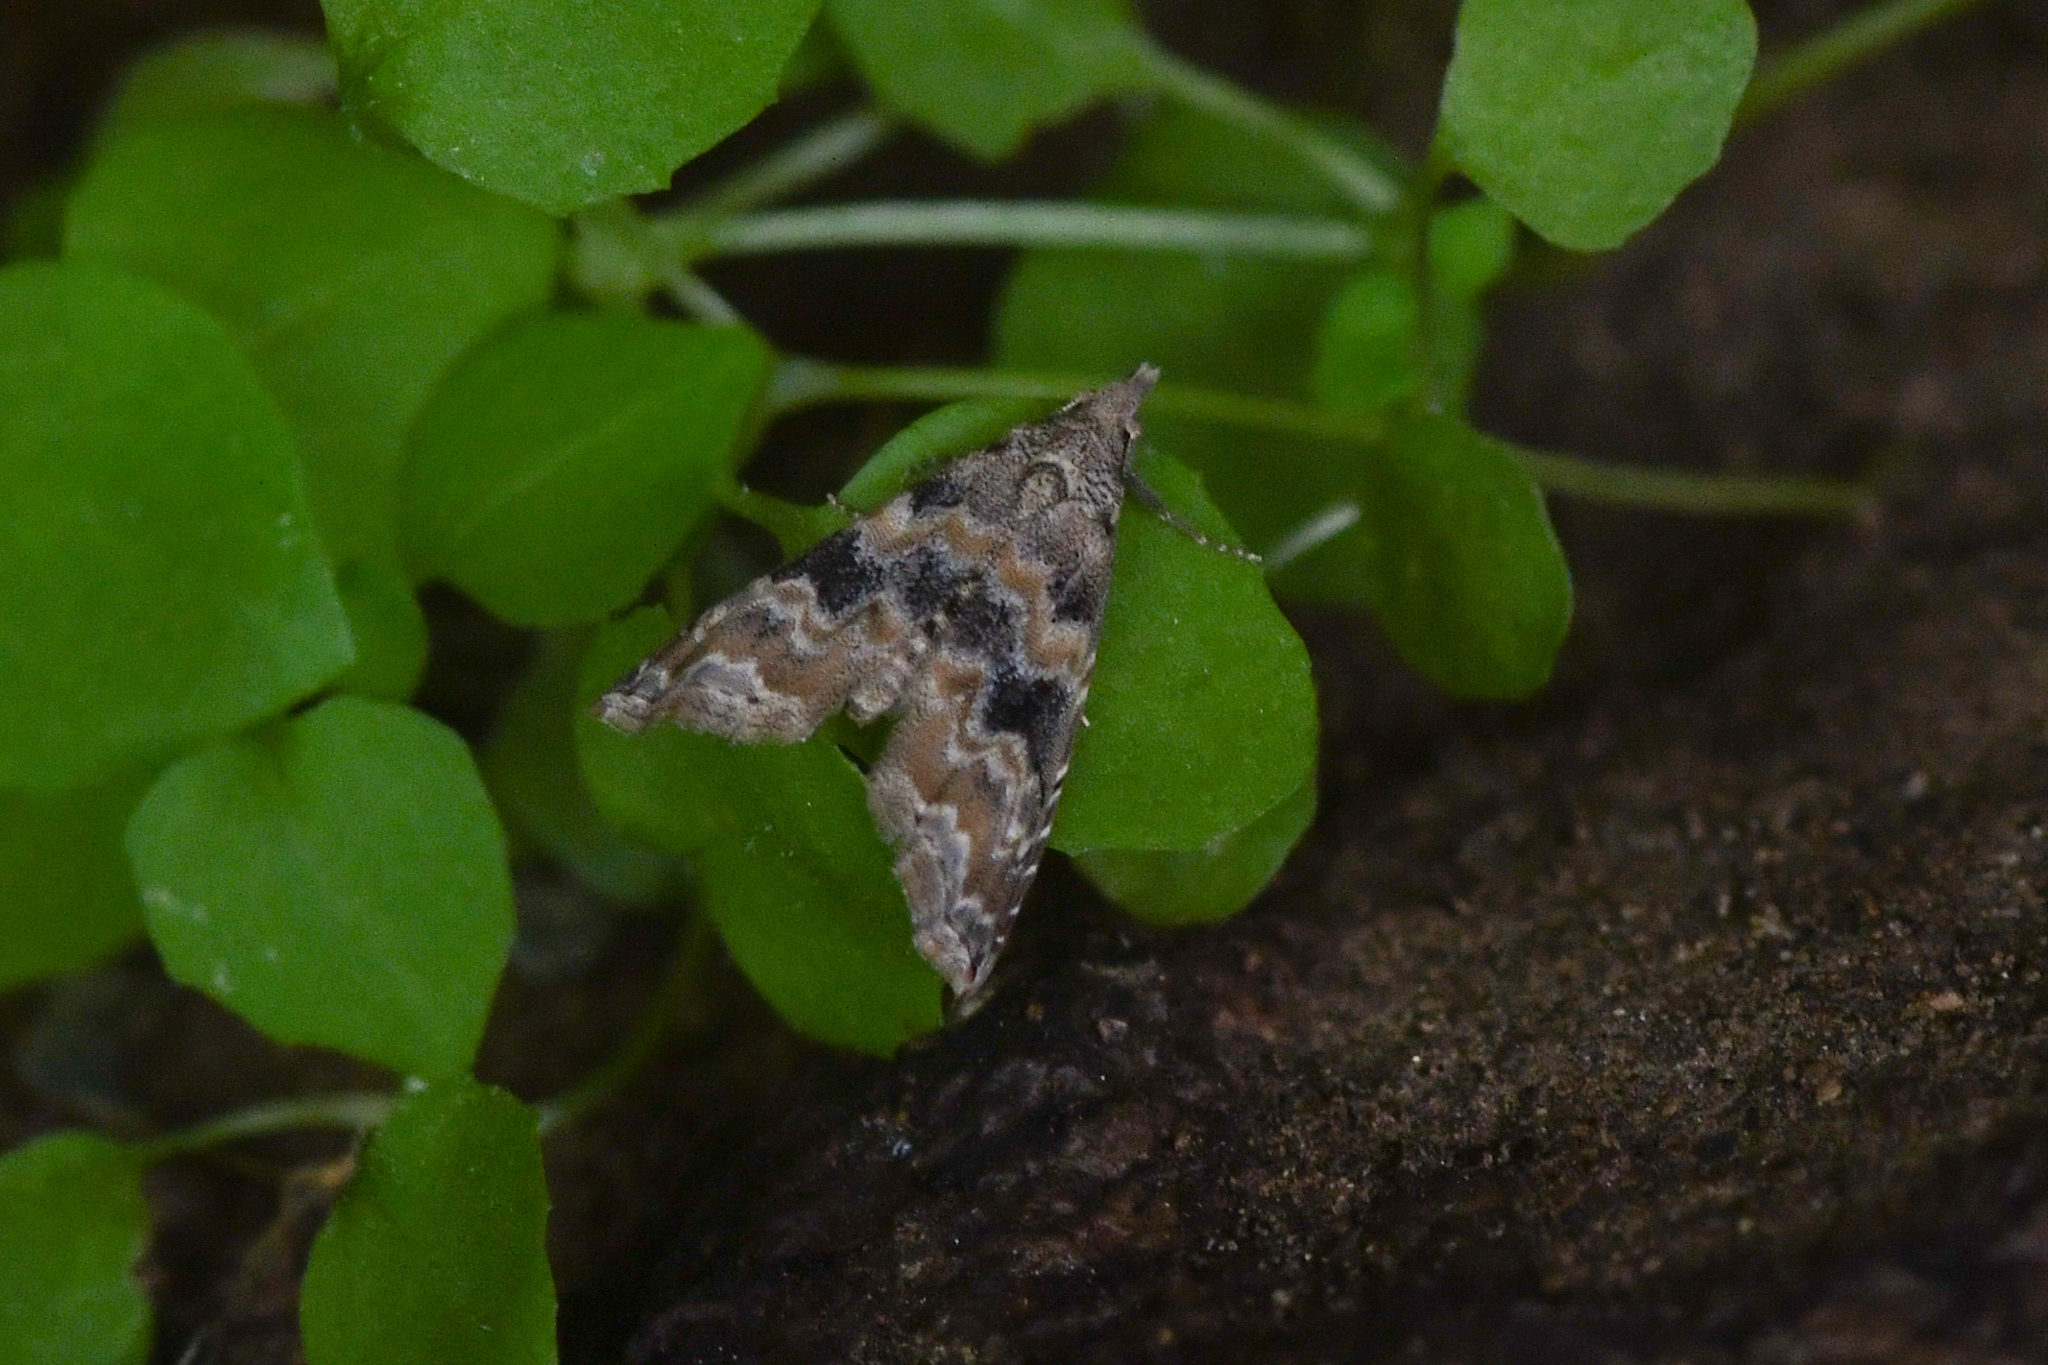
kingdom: Animalia
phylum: Arthropoda
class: Insecta
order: Lepidoptera
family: Noctuidae
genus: Phobolosia
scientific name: Phobolosia anfracta
